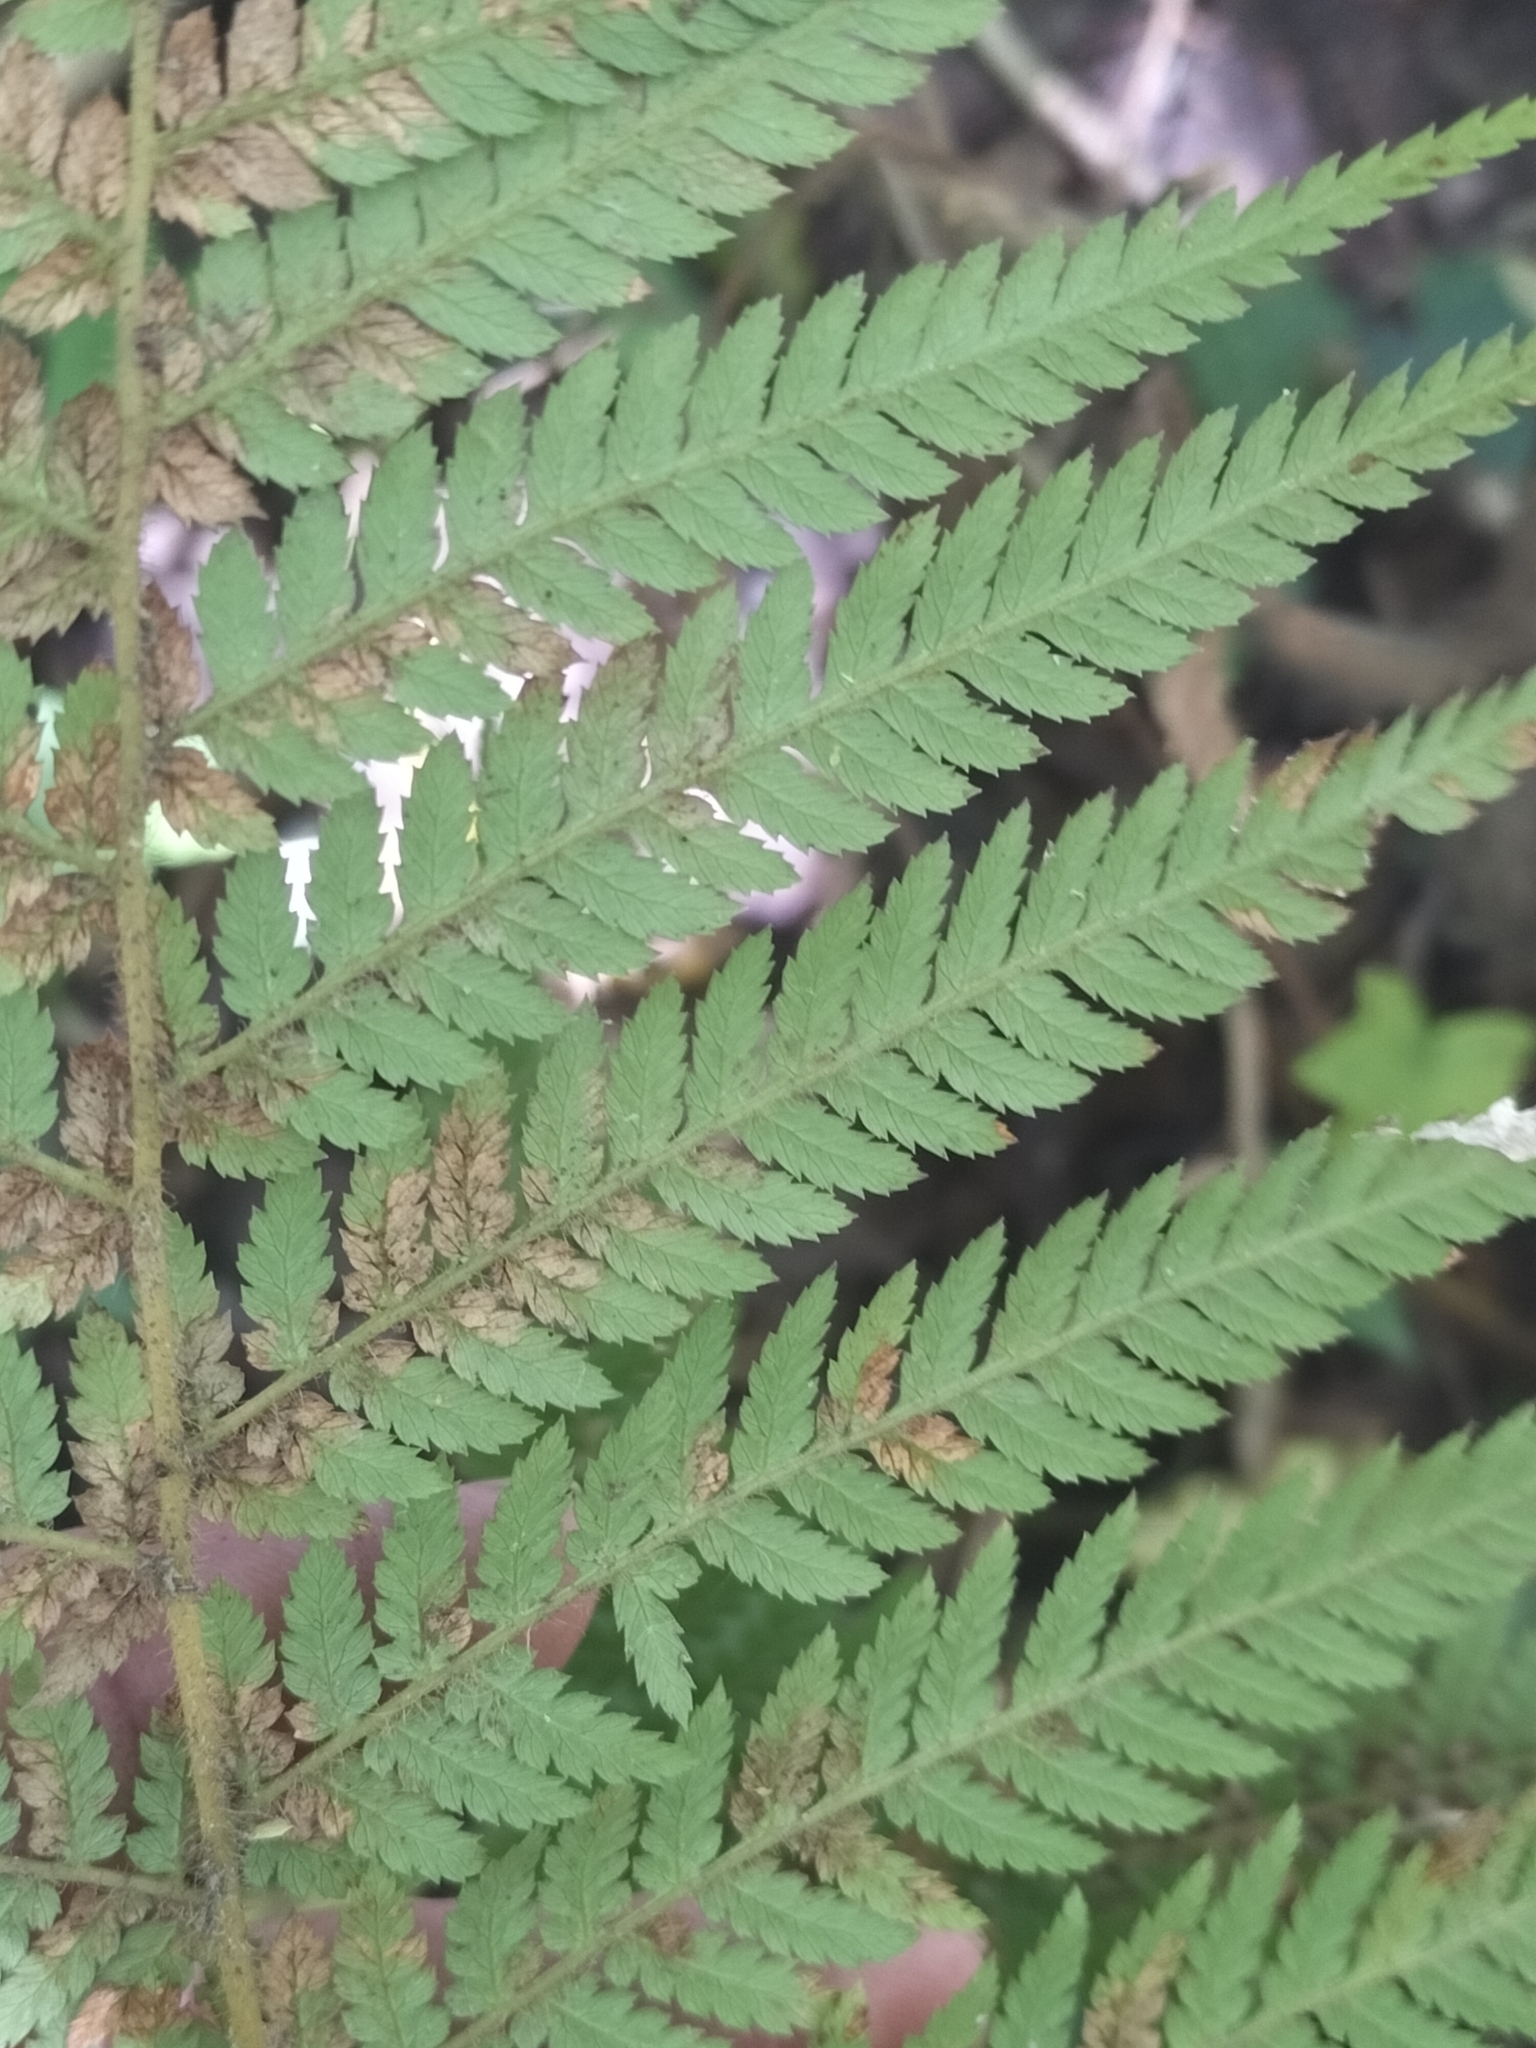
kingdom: Plantae
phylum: Tracheophyta
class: Polypodiopsida
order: Cyatheales
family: Dicksoniaceae
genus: Dicksonia
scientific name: Dicksonia squarrosa
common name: Hard treefern
